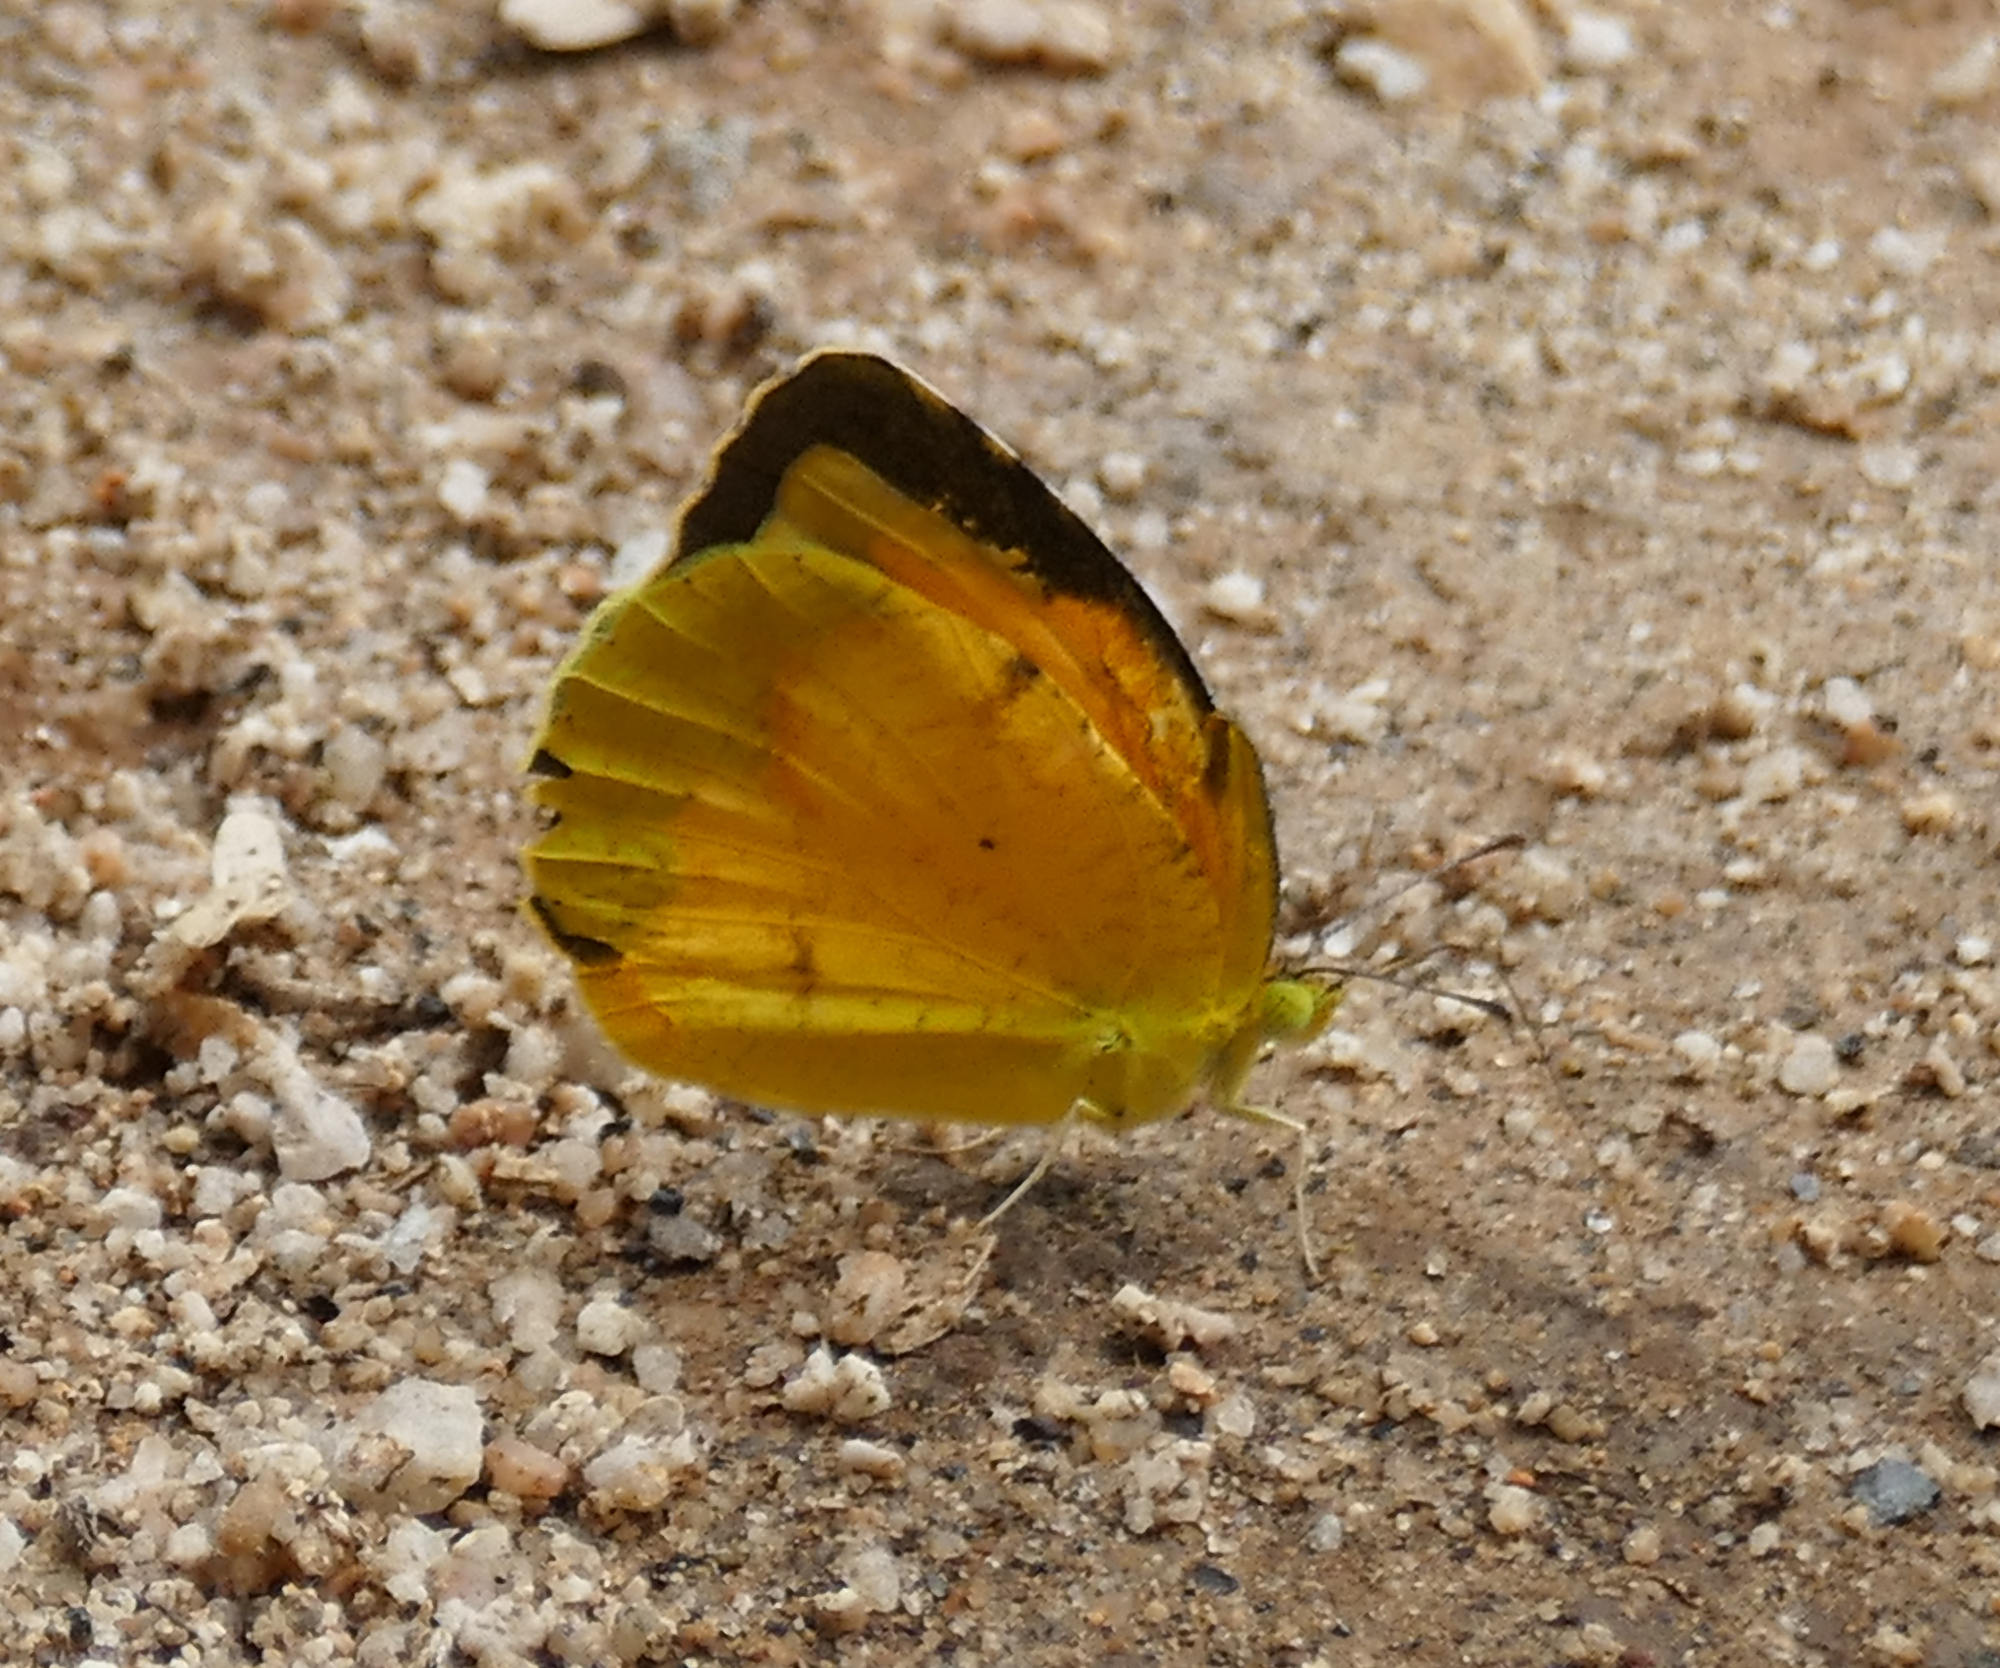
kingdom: Animalia
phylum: Arthropoda
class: Insecta
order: Lepidoptera
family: Pieridae
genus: Abaeis
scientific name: Abaeis nicippe
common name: Sleepy orange
